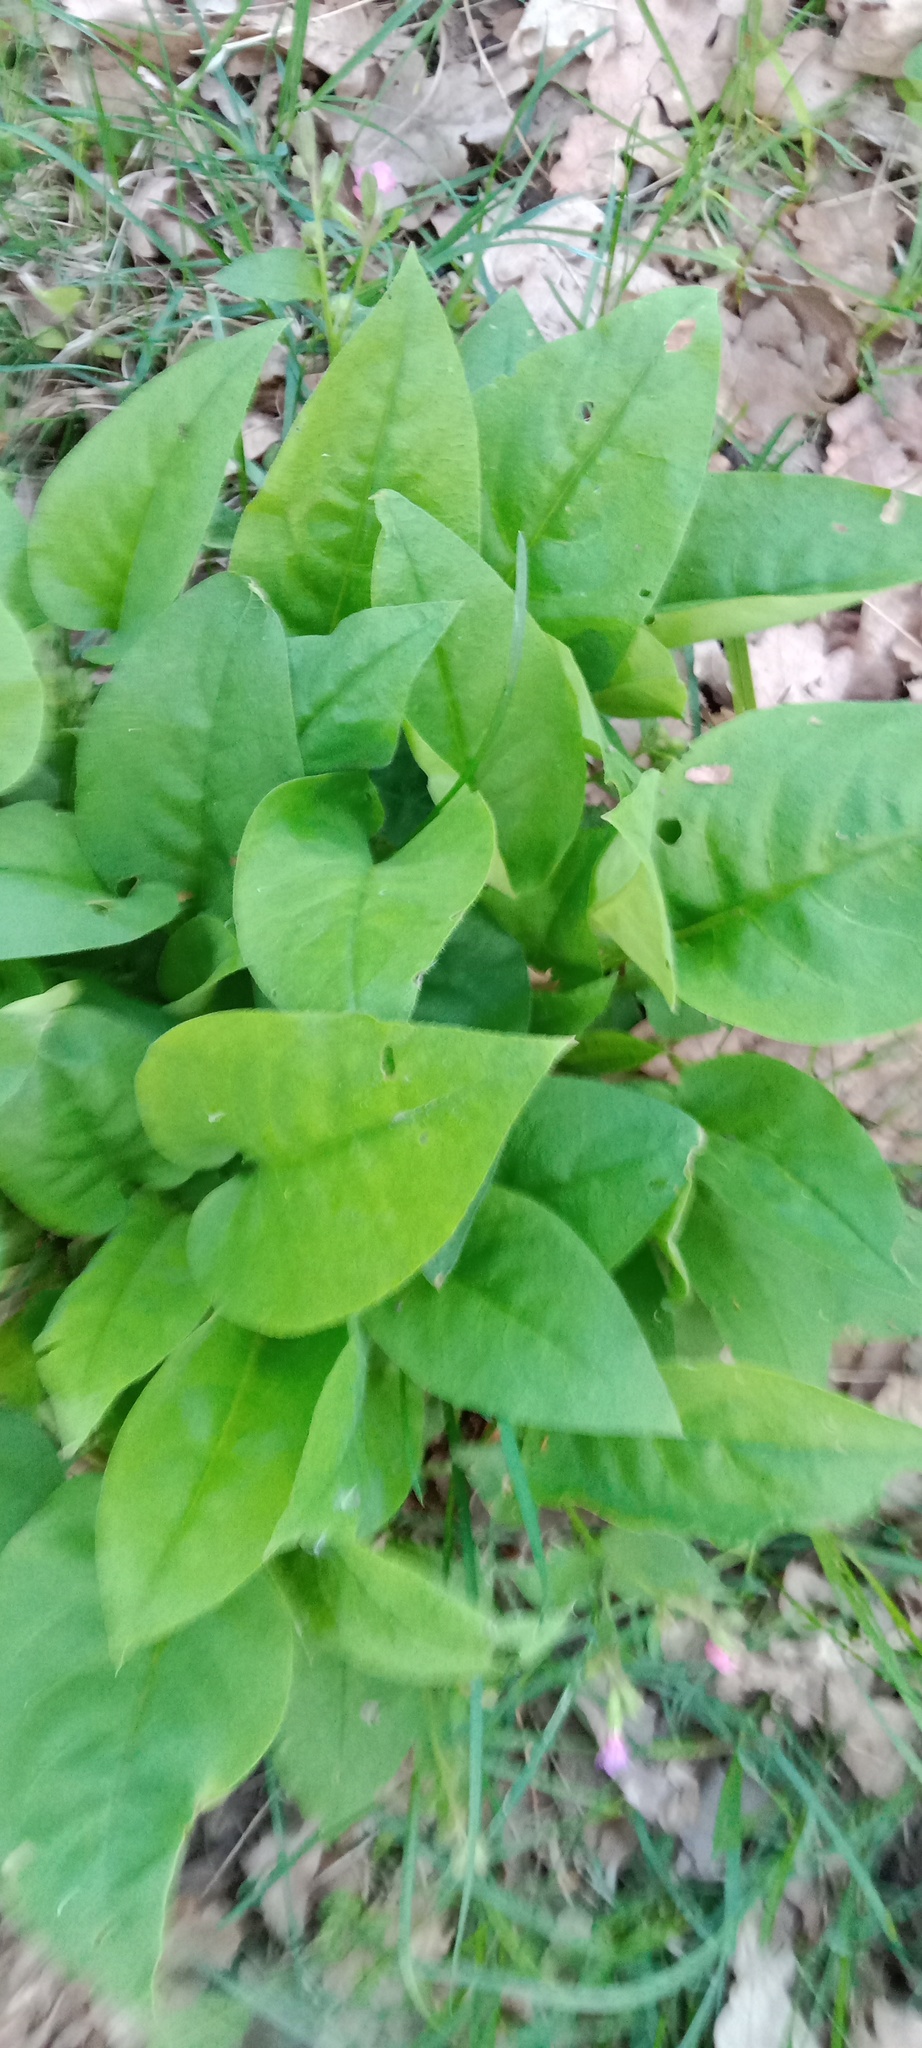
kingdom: Plantae
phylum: Tracheophyta
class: Magnoliopsida
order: Boraginales
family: Boraginaceae
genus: Pulmonaria
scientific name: Pulmonaria obscura
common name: Suffolk lungwort
